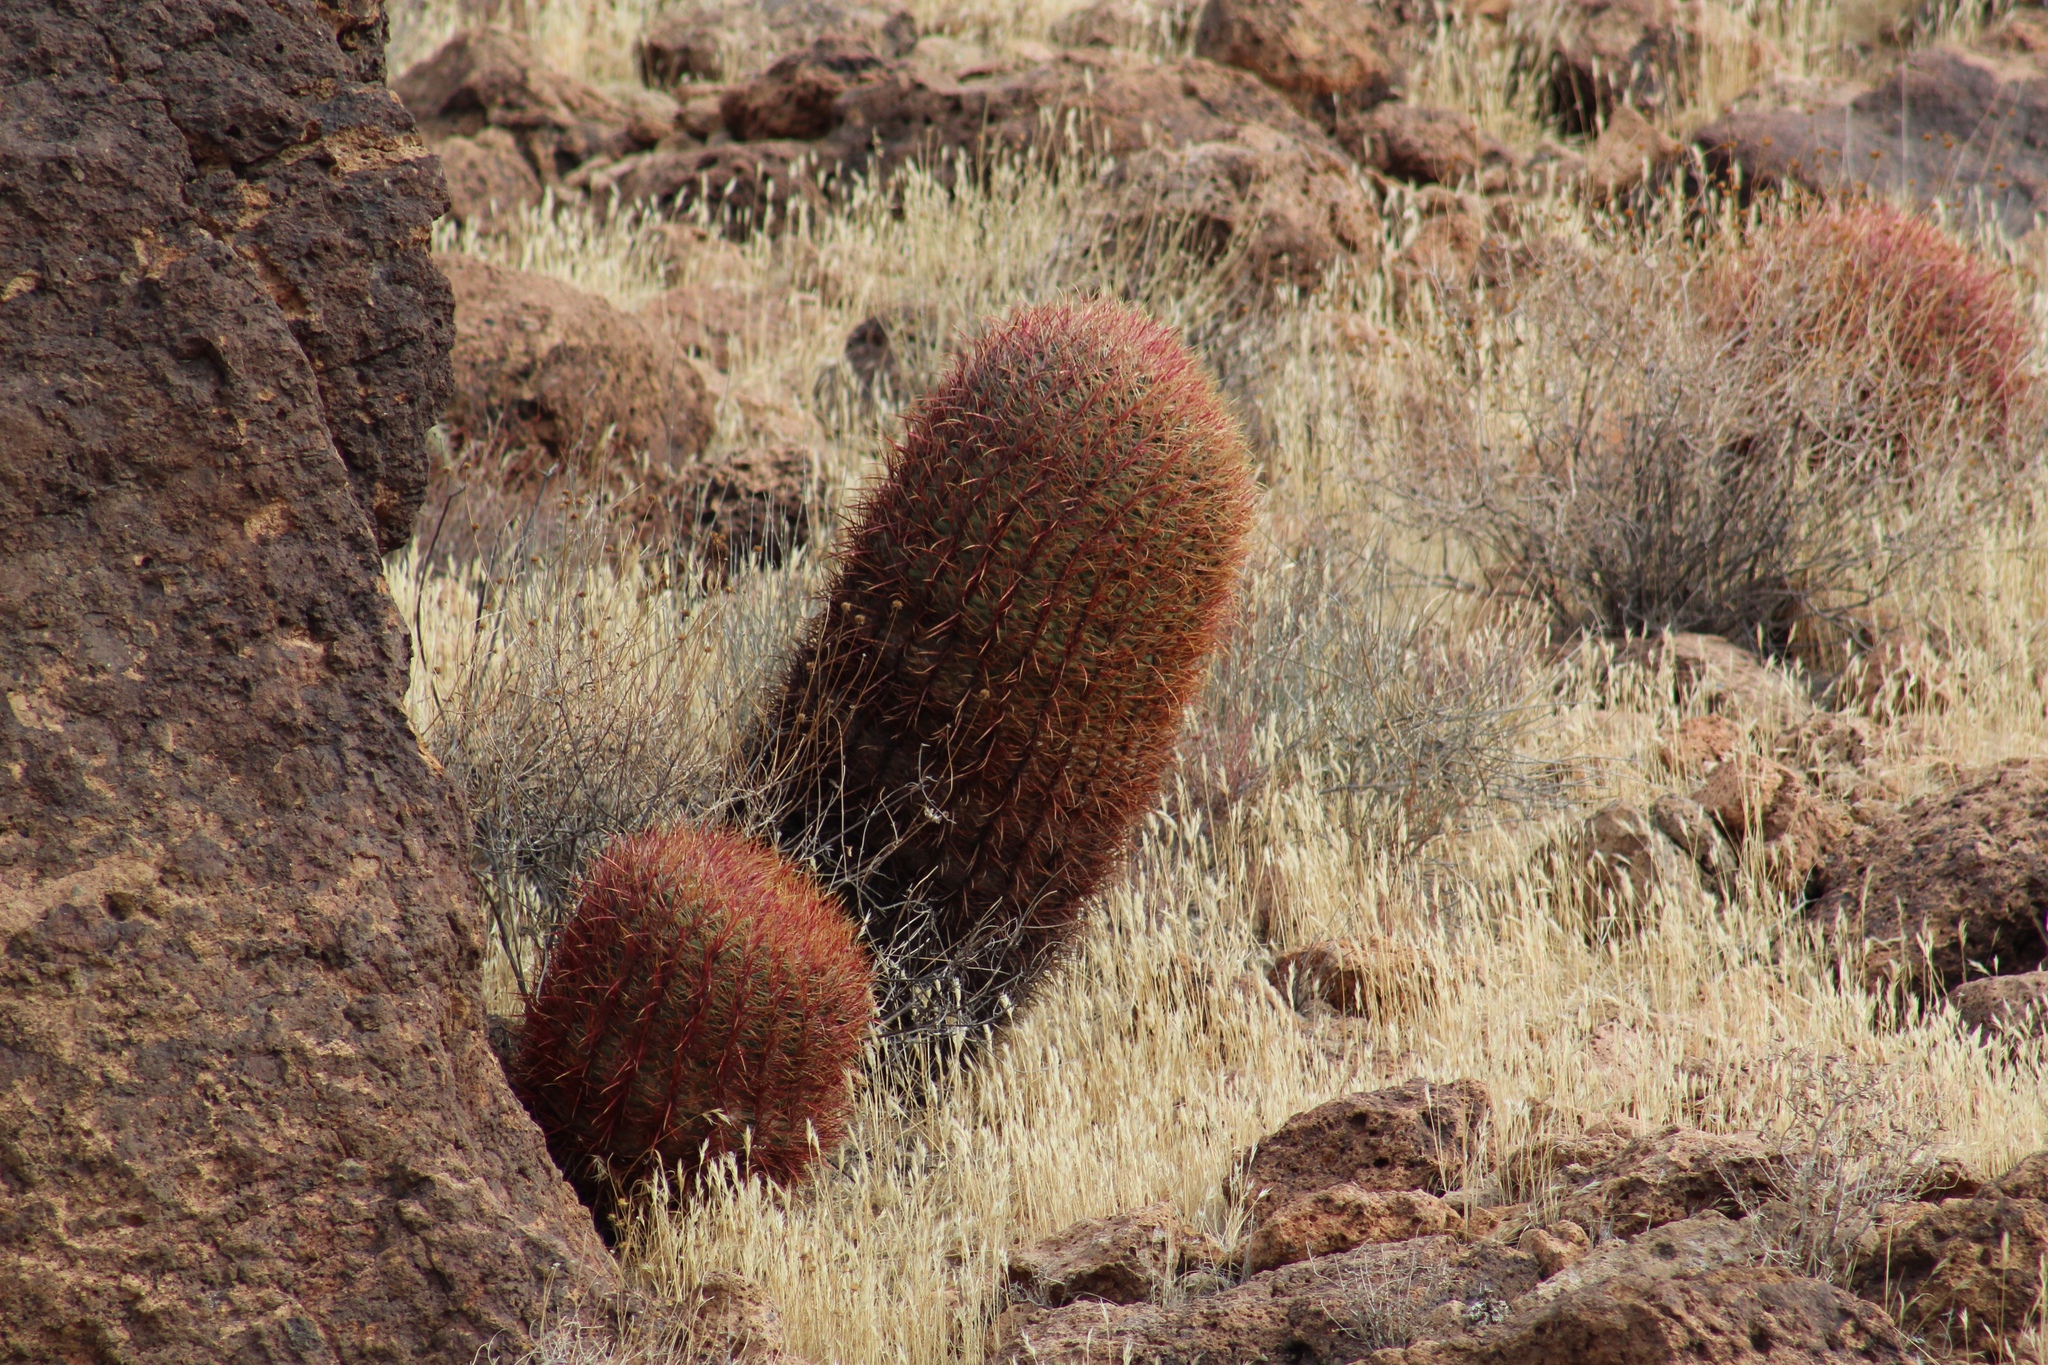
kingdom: Plantae
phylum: Tracheophyta
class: Magnoliopsida
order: Caryophyllales
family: Cactaceae
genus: Ferocactus
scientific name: Ferocactus cylindraceus
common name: California barrel cactus
